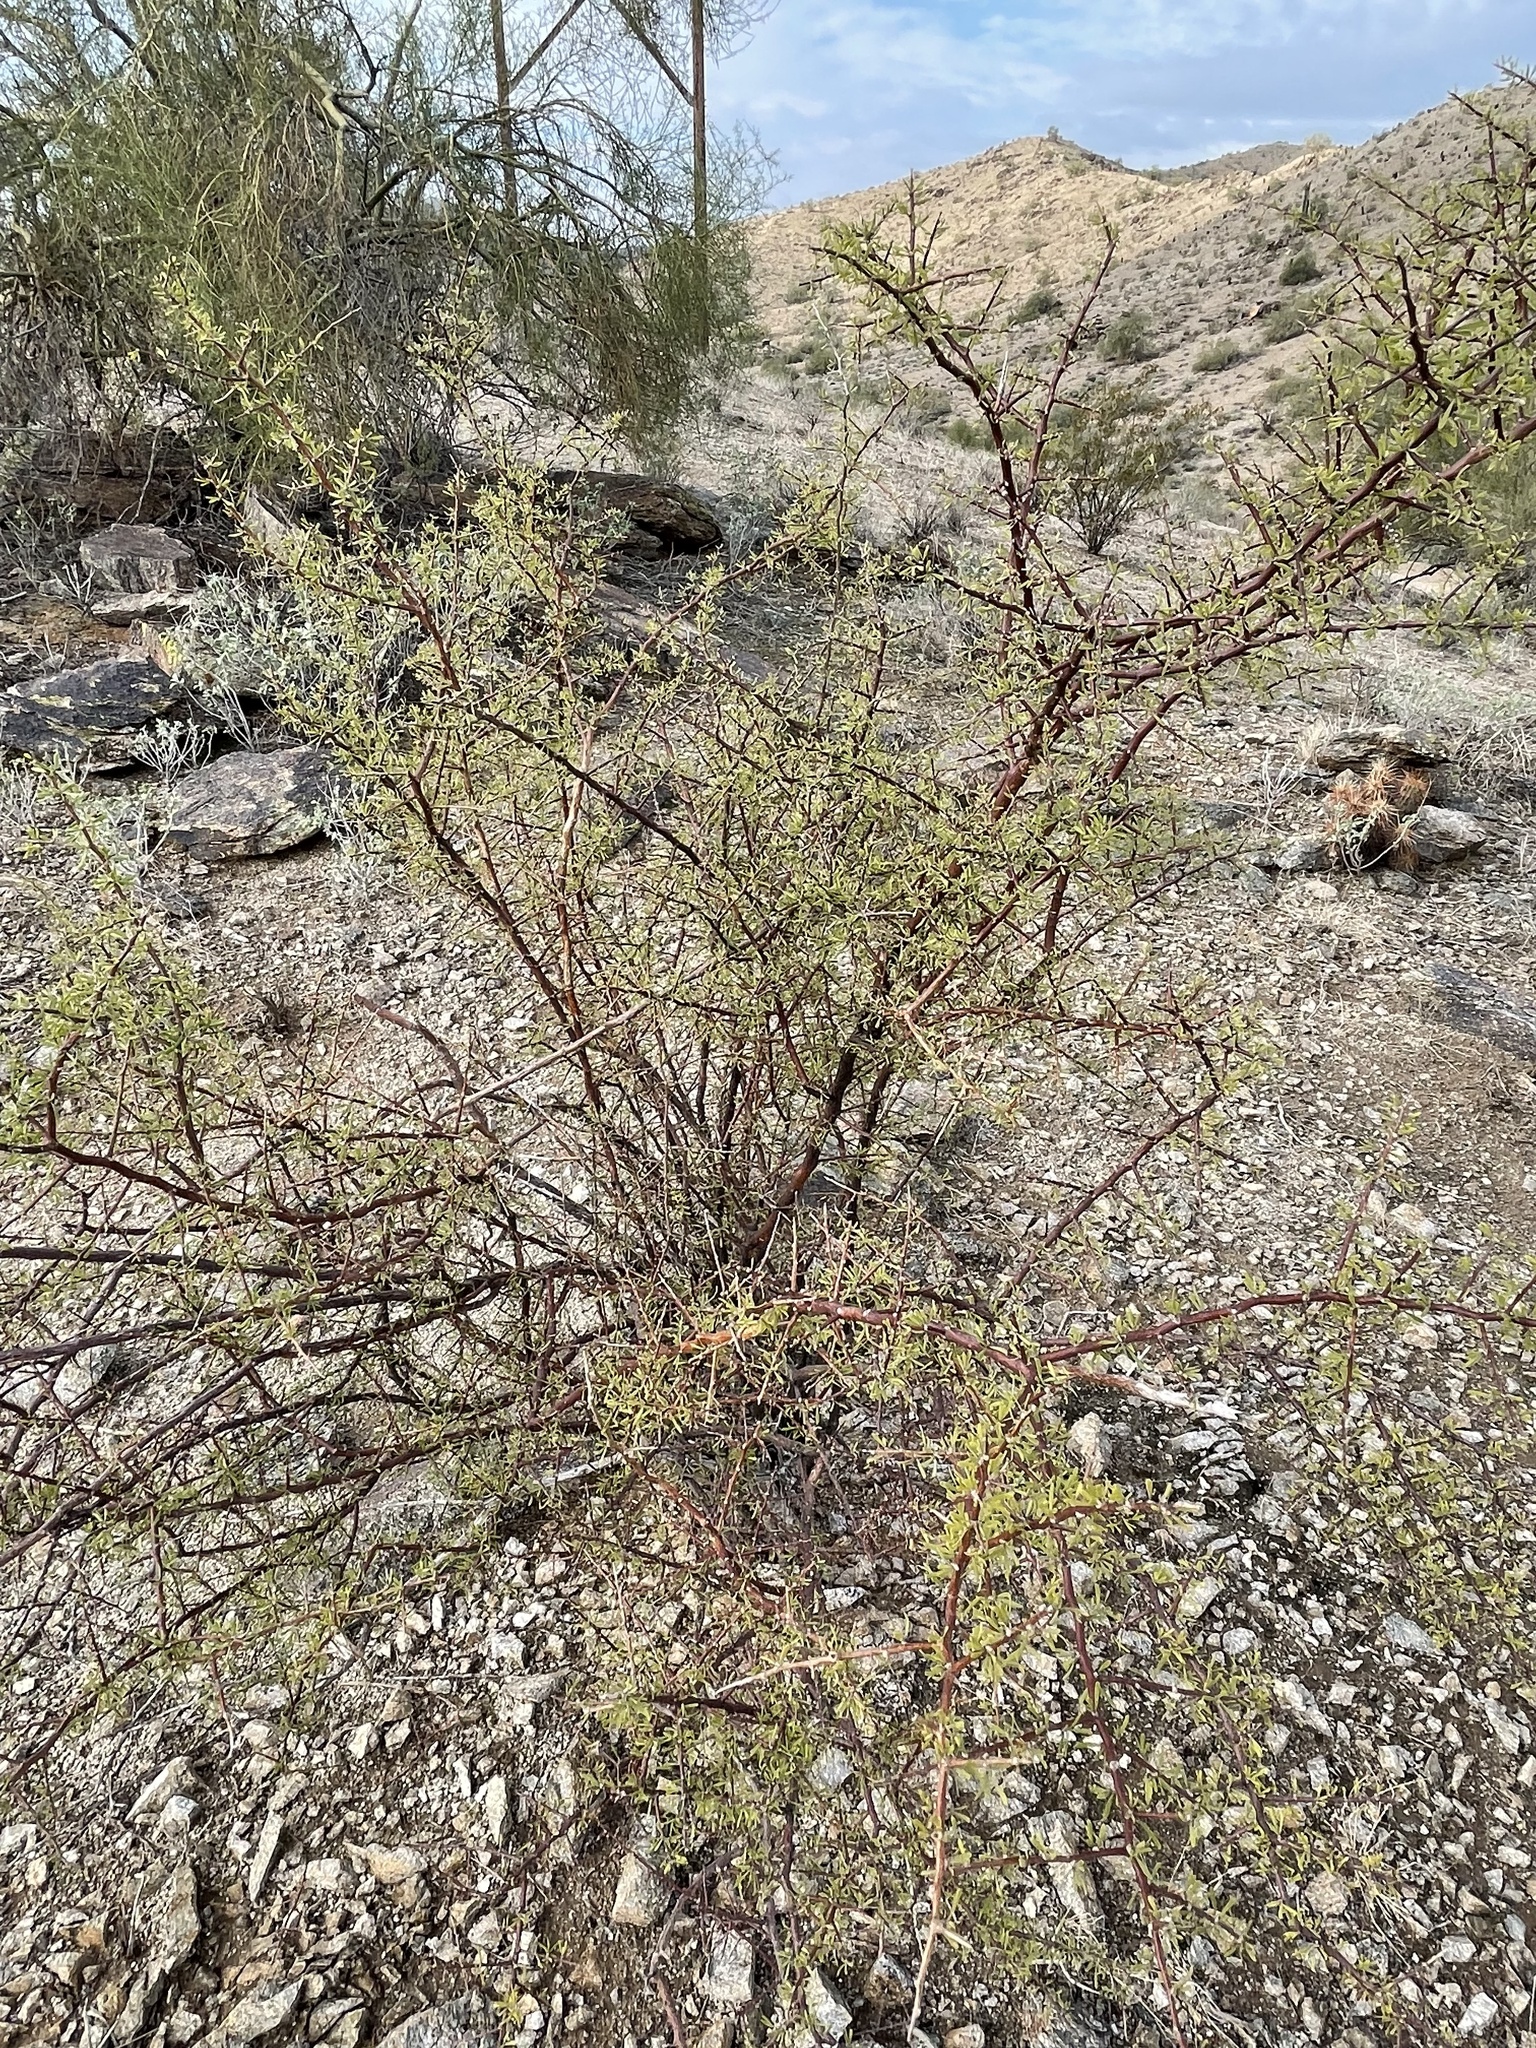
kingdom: Plantae
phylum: Tracheophyta
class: Magnoliopsida
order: Solanales
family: Solanaceae
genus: Lycium
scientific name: Lycium berlandieri
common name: Berlandier wolfberry
